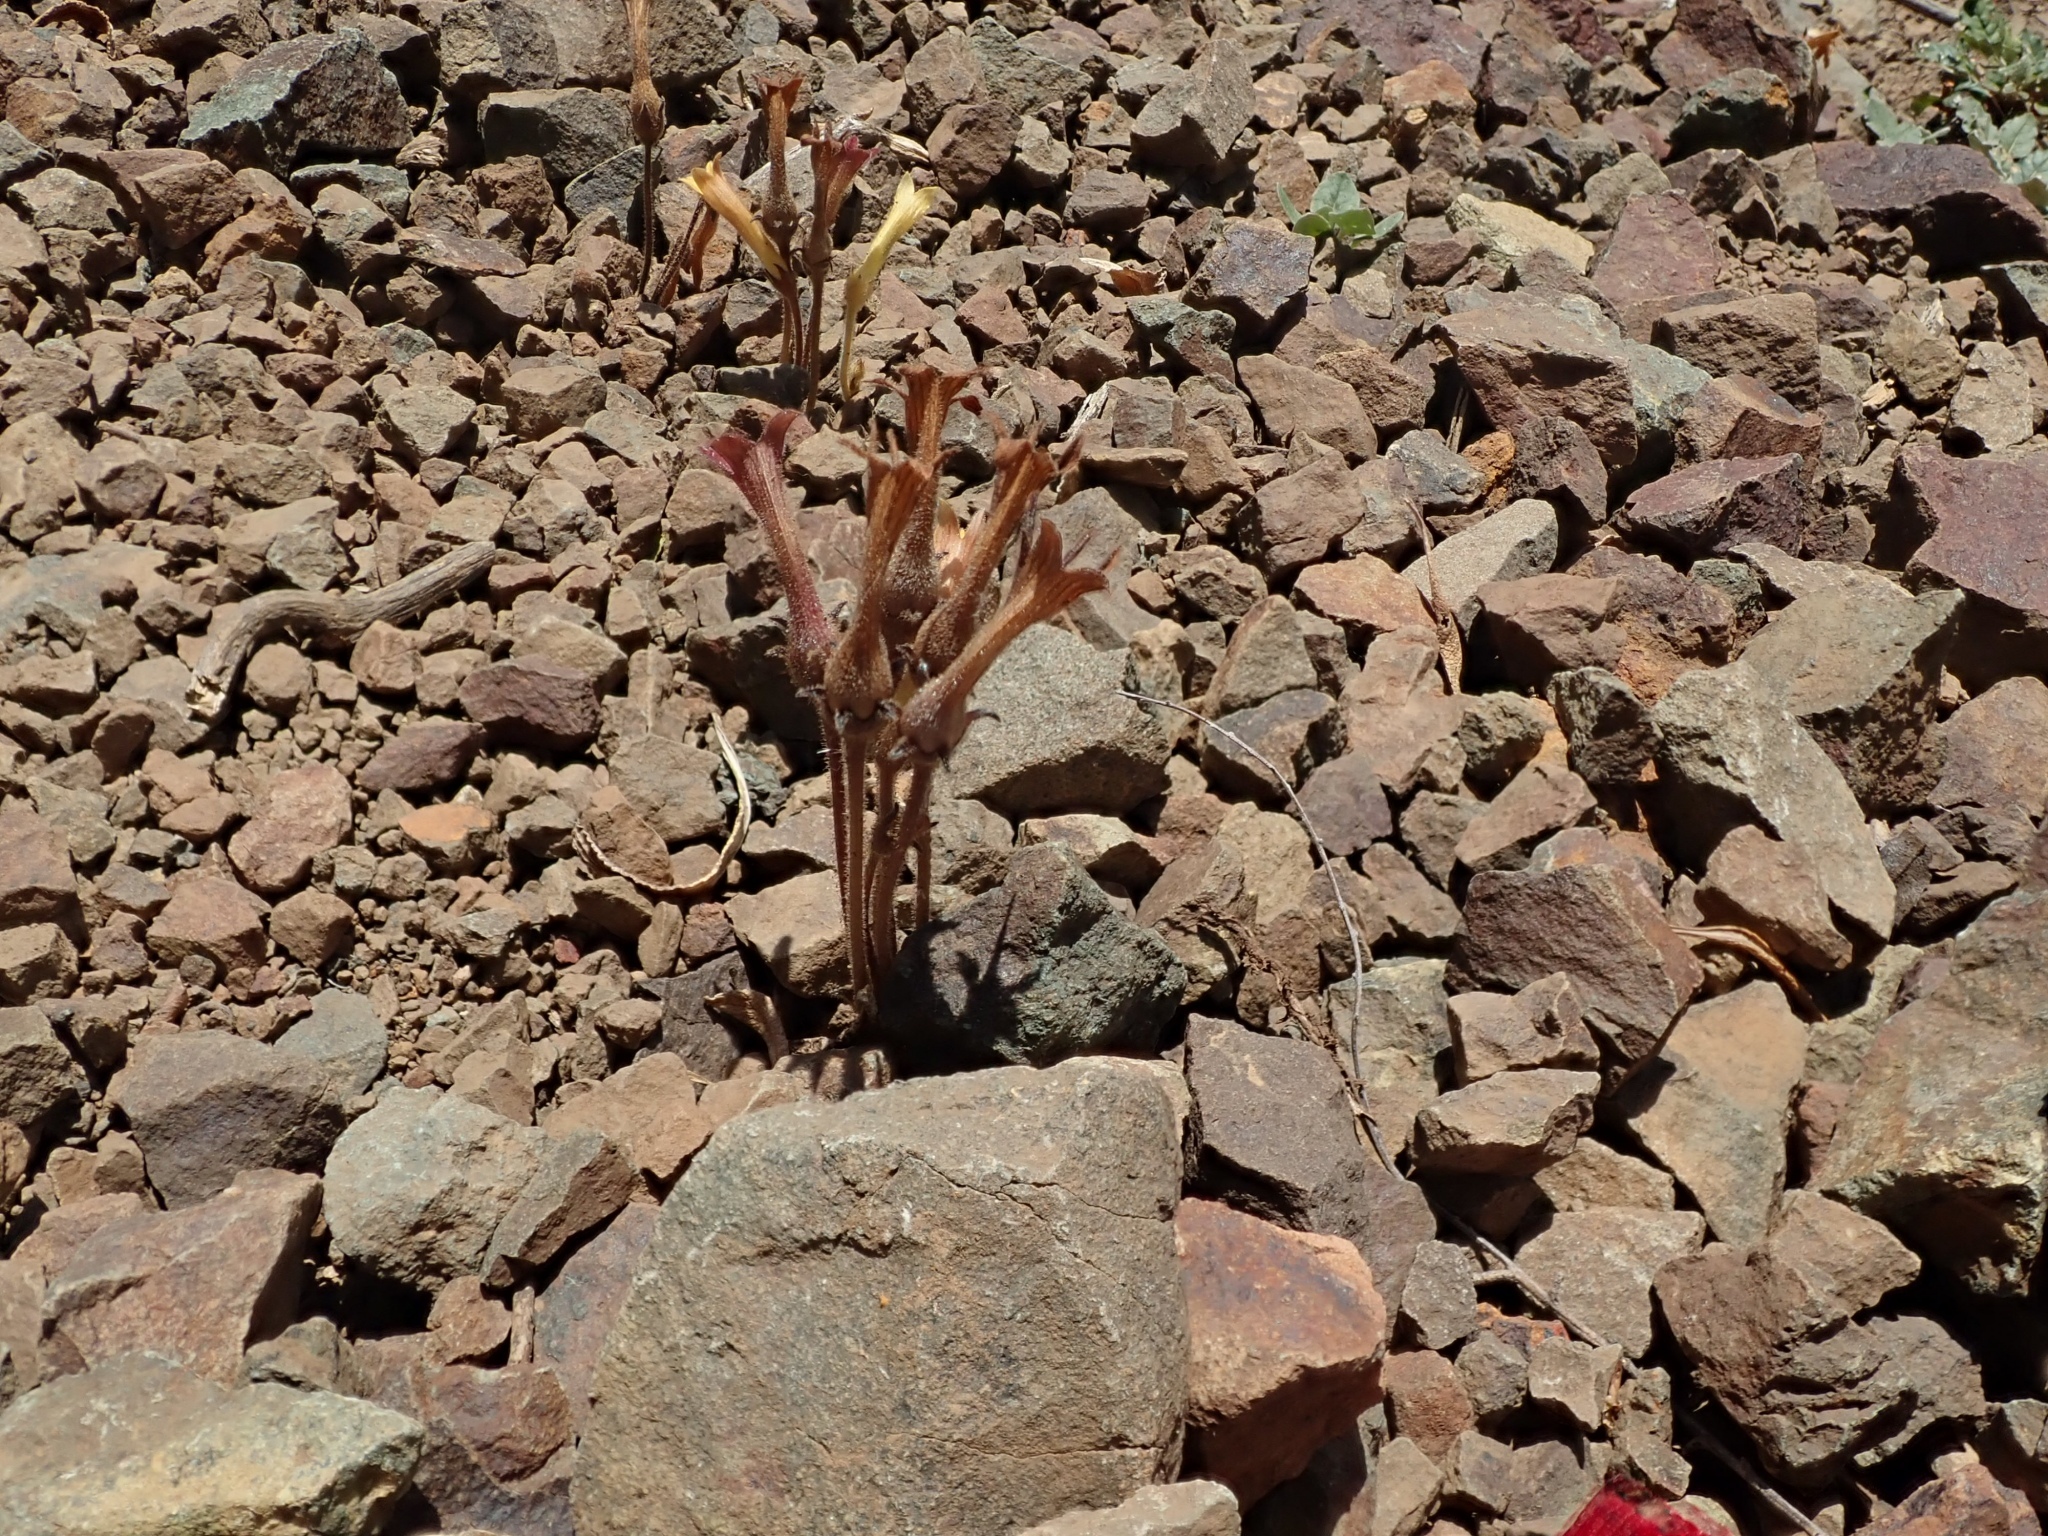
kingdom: Plantae
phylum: Tracheophyta
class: Magnoliopsida
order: Lamiales
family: Orobanchaceae
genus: Aphyllon
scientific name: Aphyllon franciscanum
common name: San francisco broomrape
